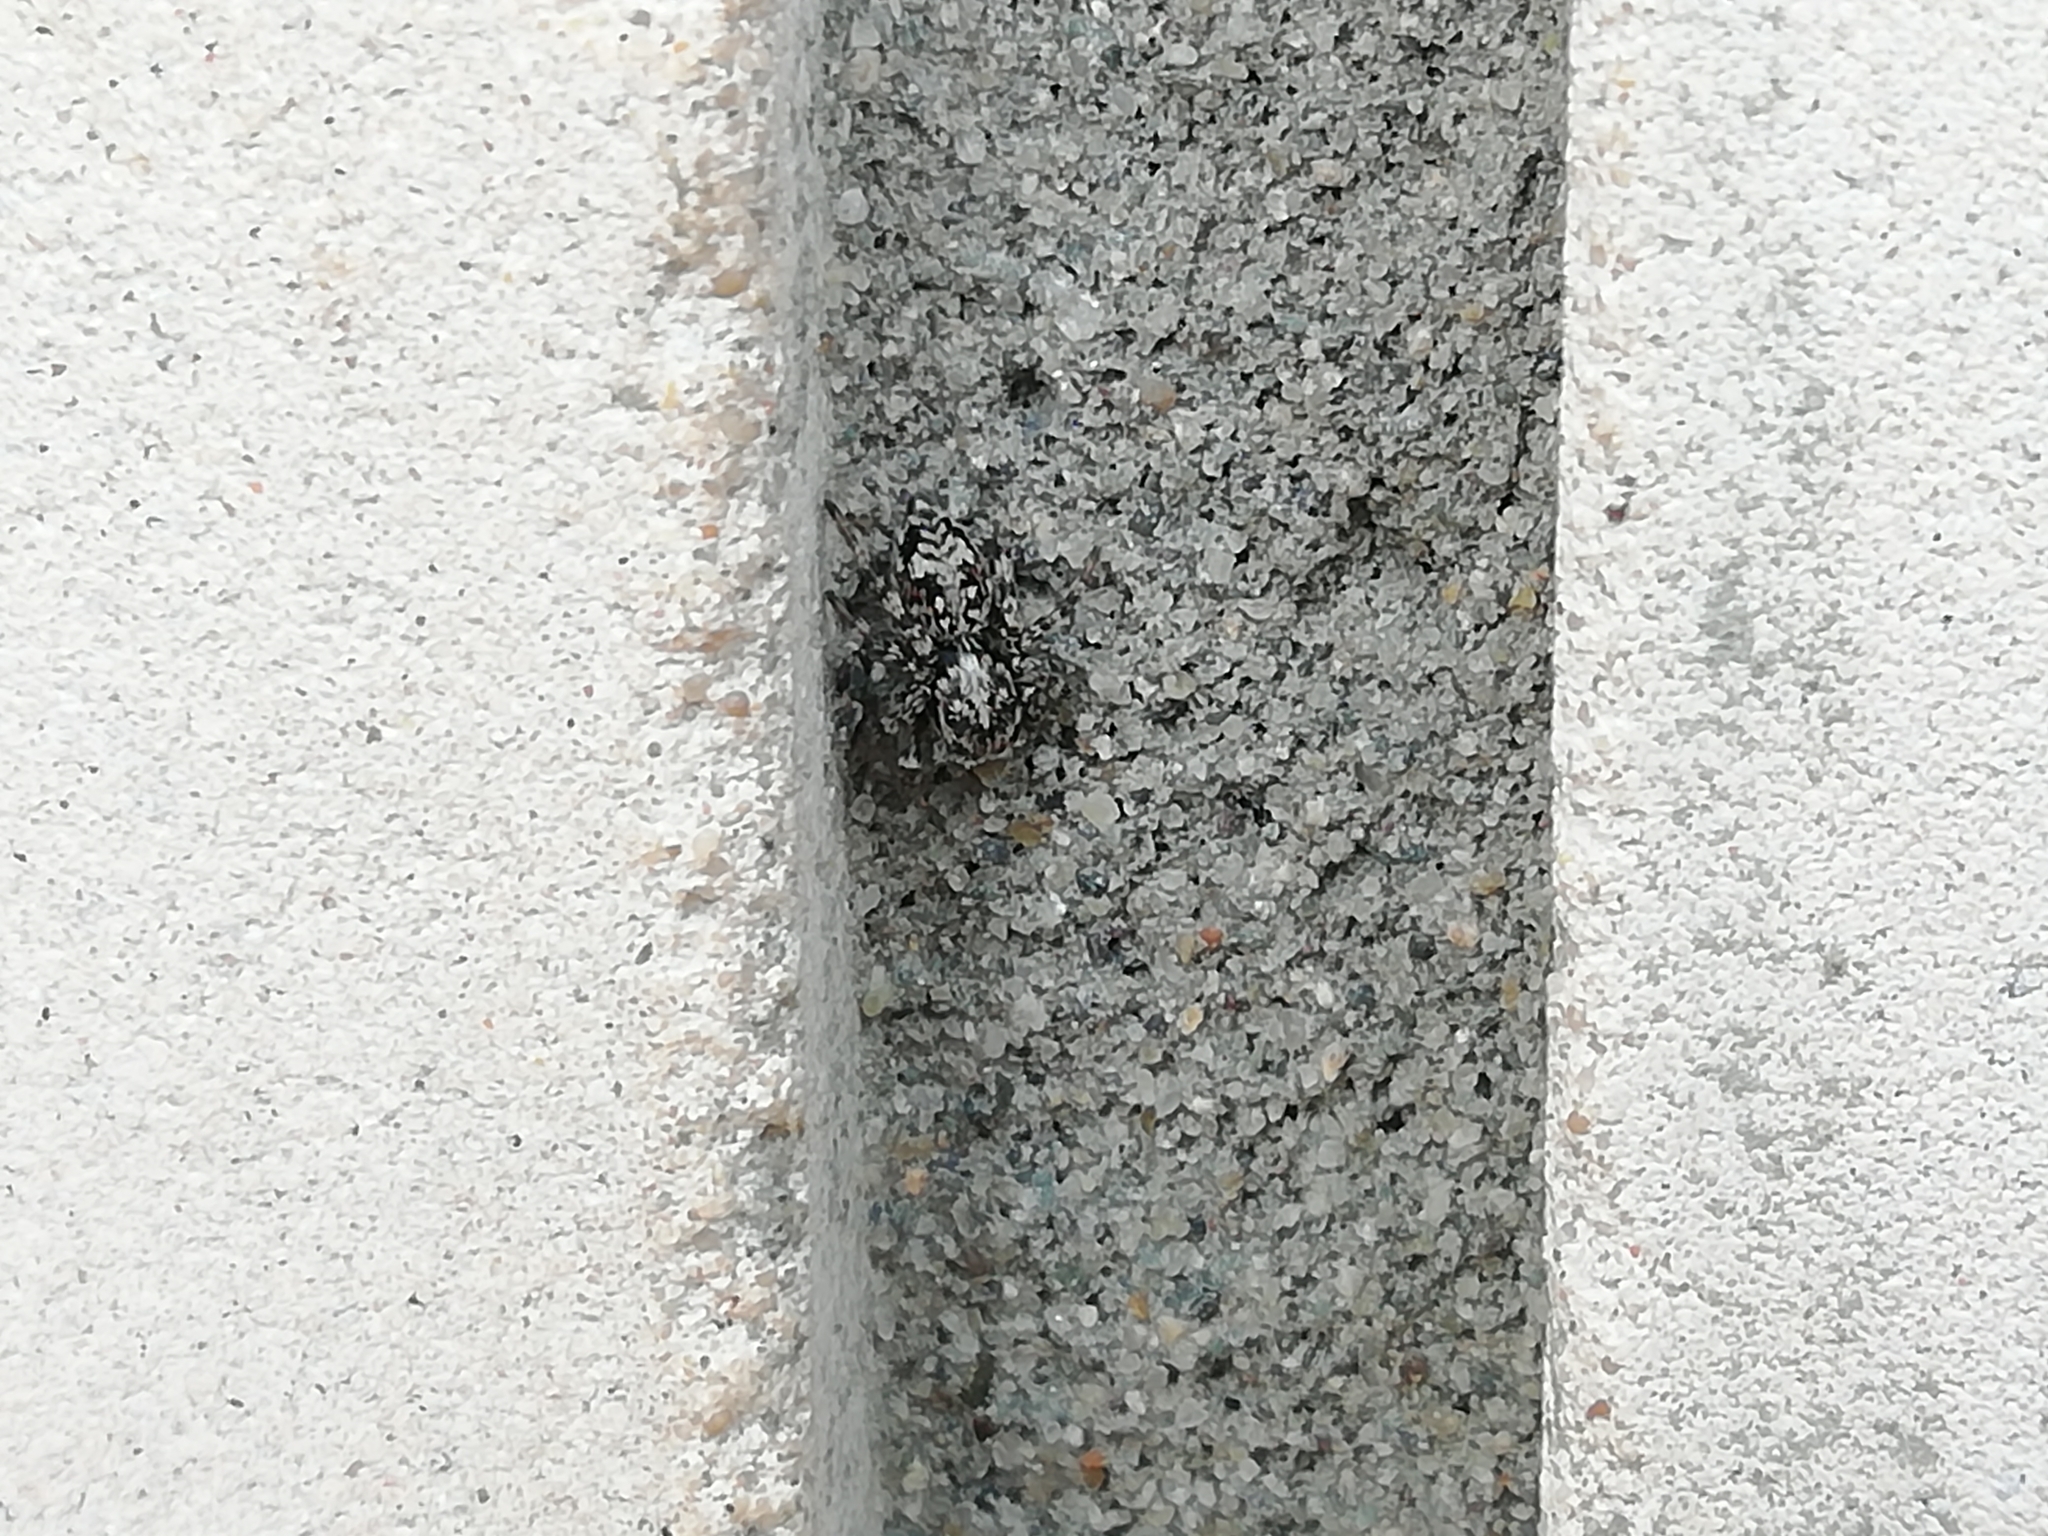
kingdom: Animalia
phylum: Arthropoda
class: Arachnida
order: Araneae
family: Salticidae
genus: Attulus
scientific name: Attulus terebratus
